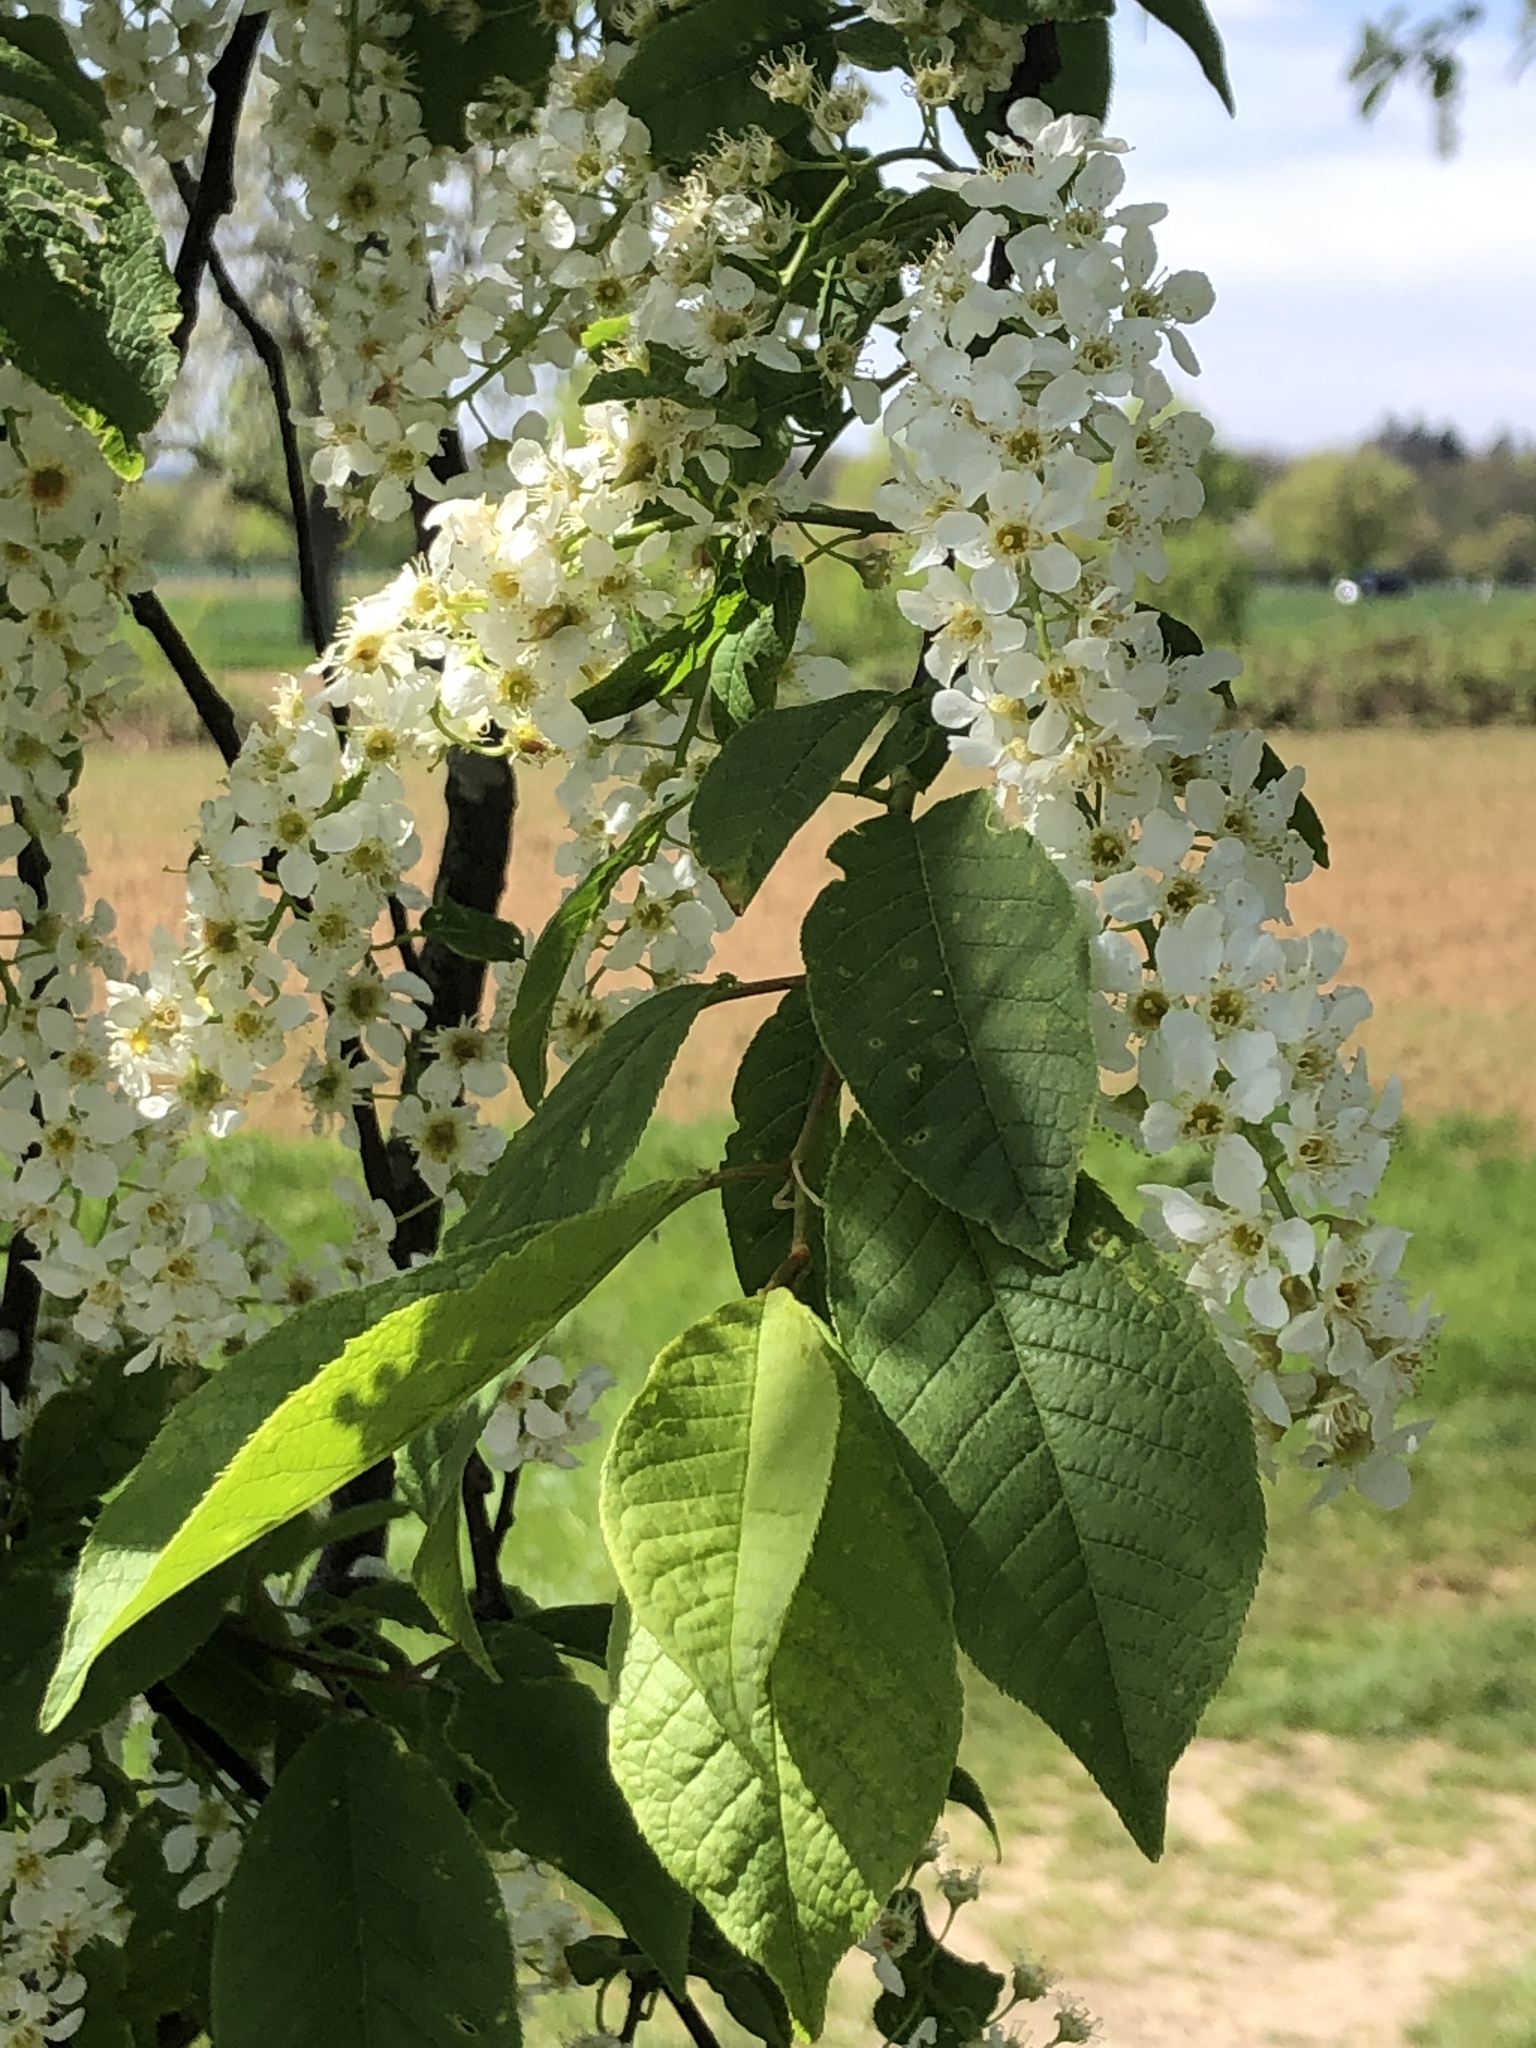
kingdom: Plantae
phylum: Tracheophyta
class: Magnoliopsida
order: Rosales
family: Rosaceae
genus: Prunus
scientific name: Prunus padus
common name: Bird cherry
